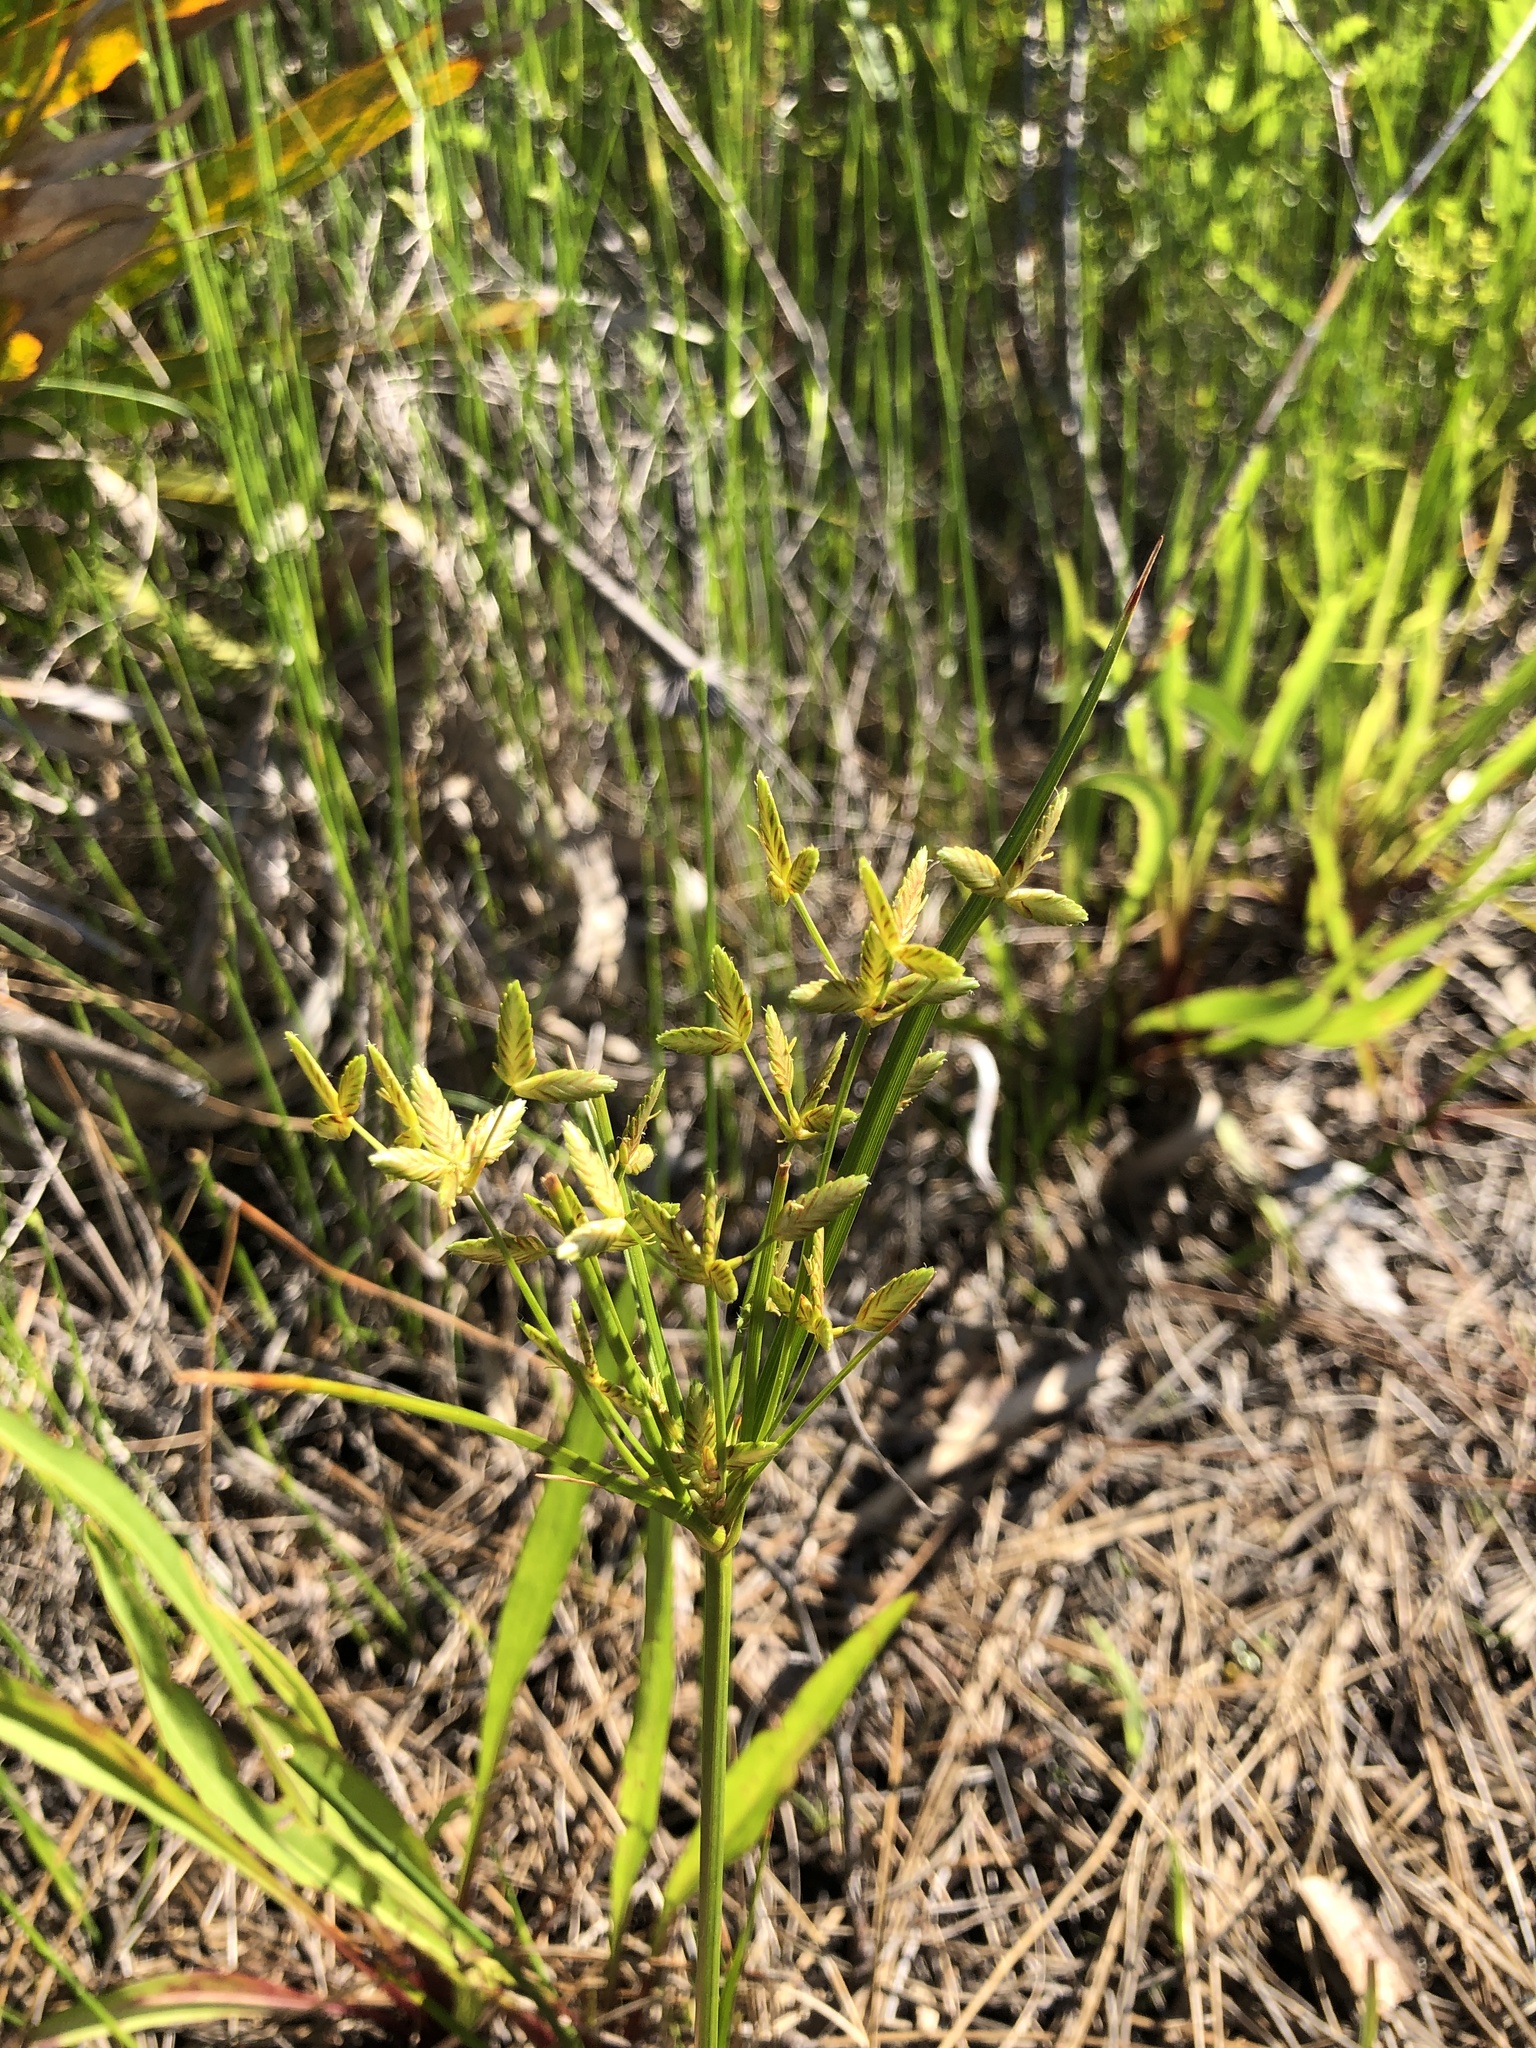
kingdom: Plantae
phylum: Tracheophyta
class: Liliopsida
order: Poales
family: Cyperaceae
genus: Cyperus
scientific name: Cyperus lecontei
